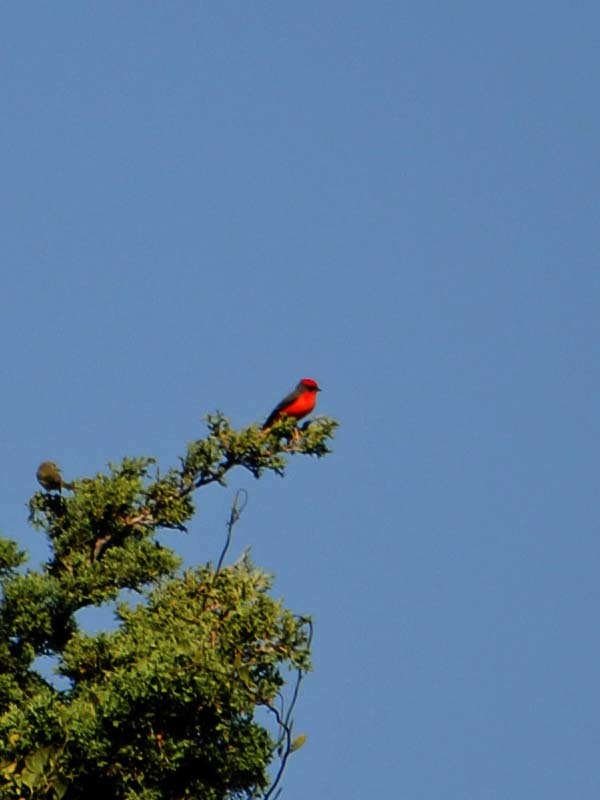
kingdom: Animalia
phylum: Chordata
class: Aves
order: Passeriformes
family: Tyrannidae
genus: Pyrocephalus
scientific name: Pyrocephalus rubinus
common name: Vermilion flycatcher
